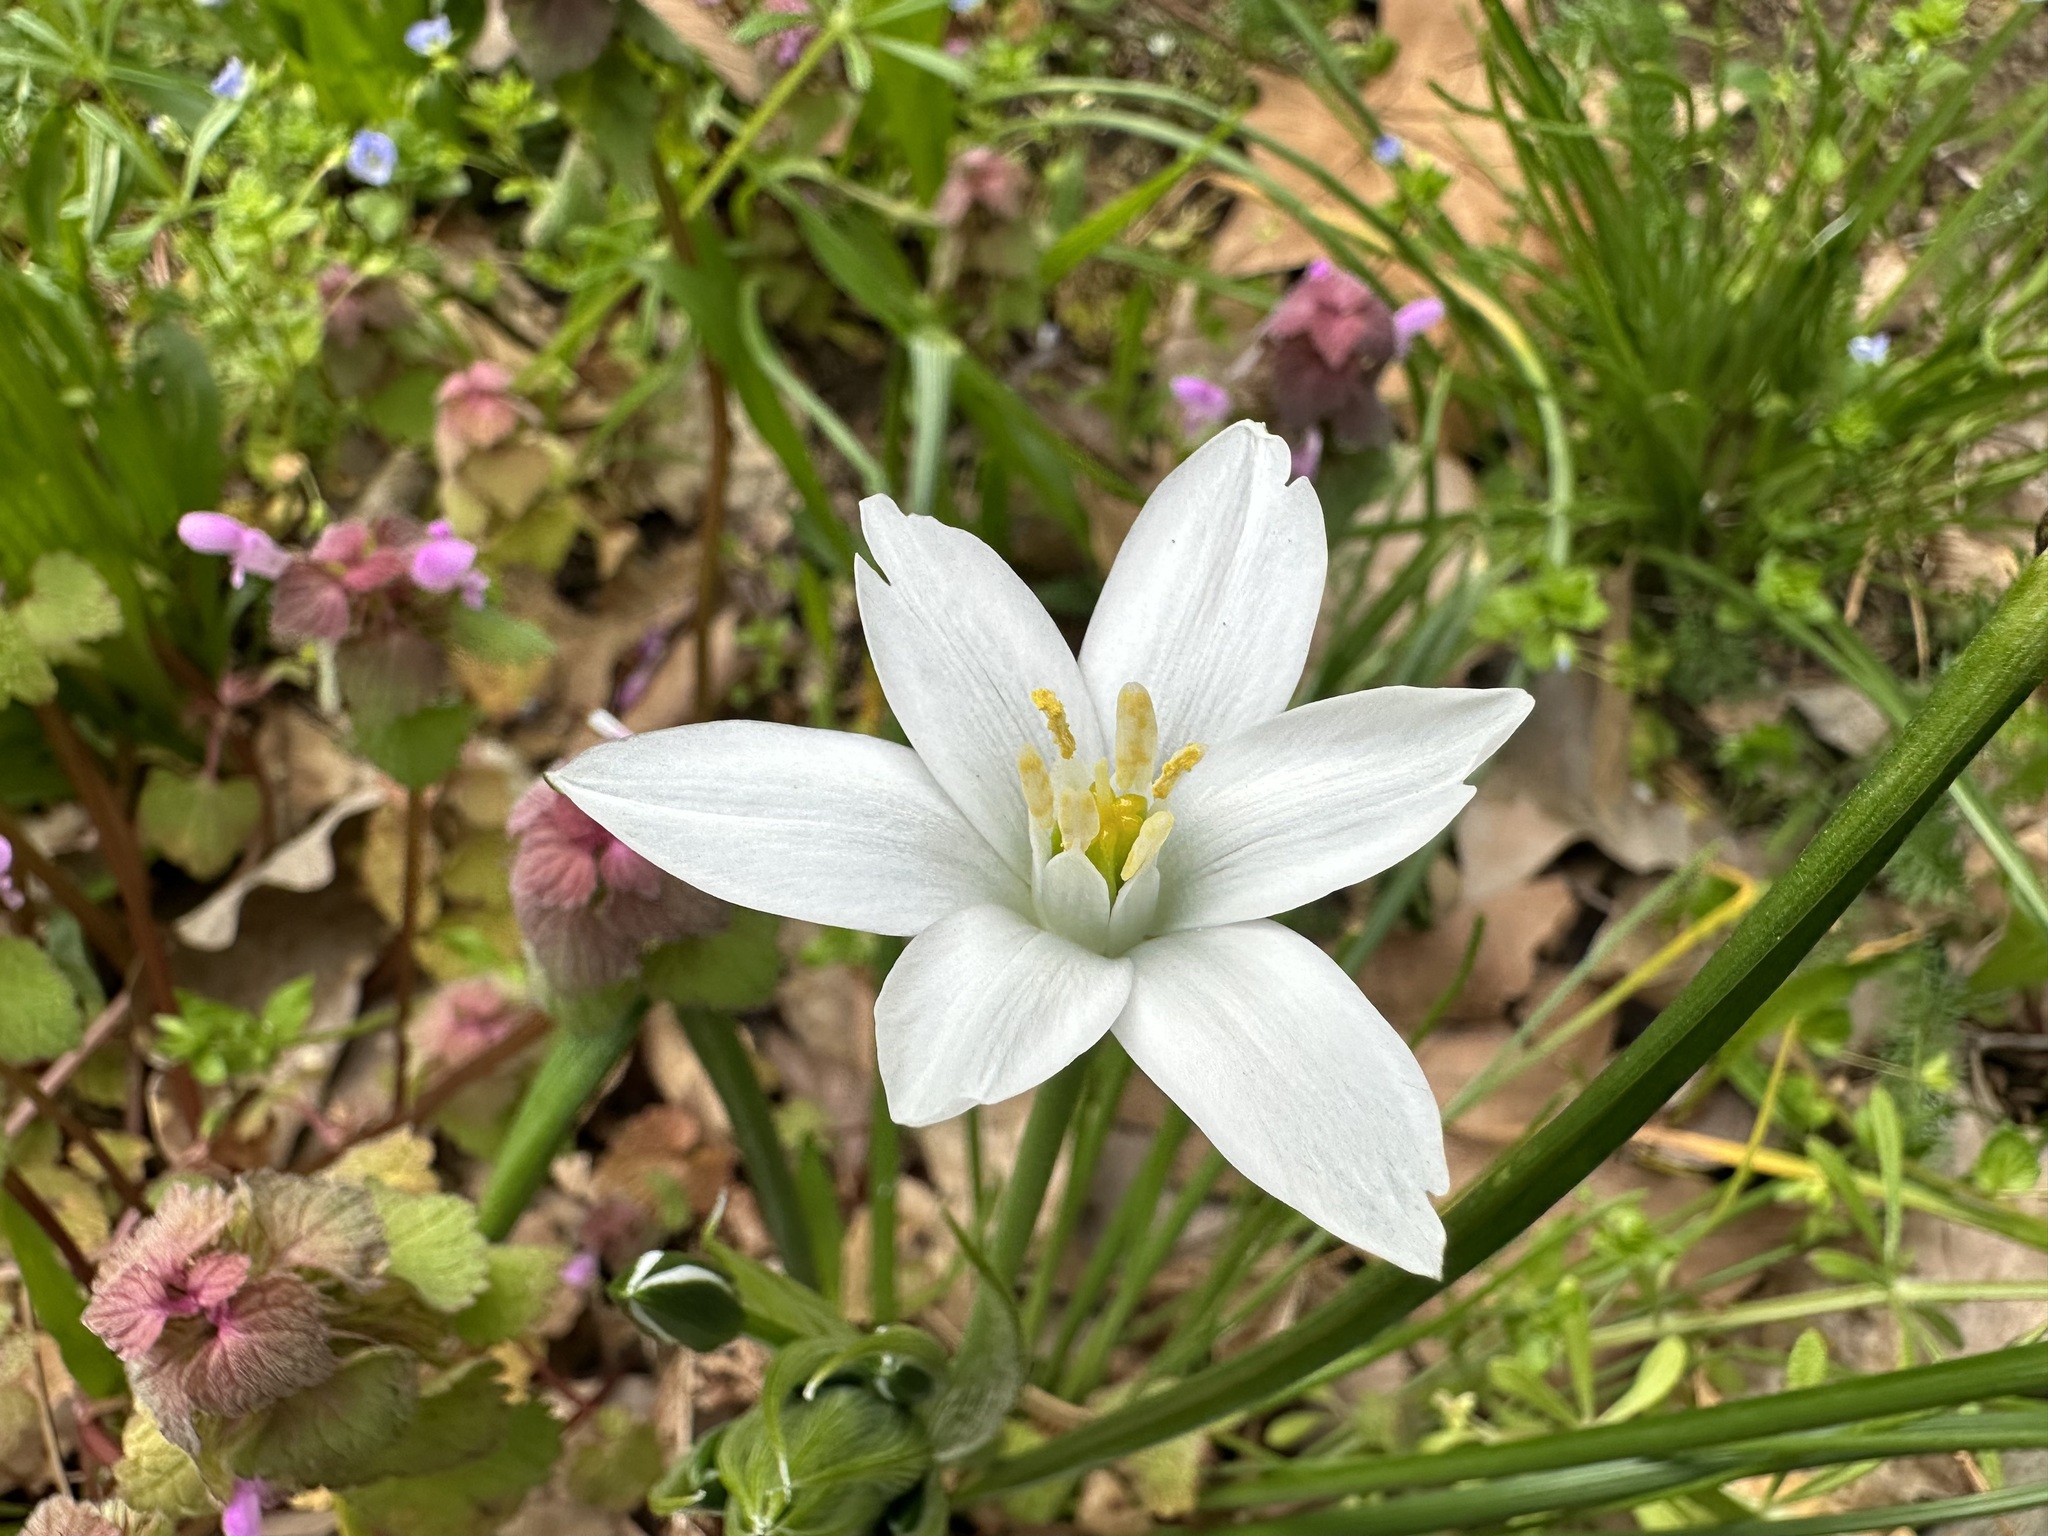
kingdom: Plantae
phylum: Tracheophyta
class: Liliopsida
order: Asparagales
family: Asparagaceae
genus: Ornithogalum
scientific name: Ornithogalum umbellatum
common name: Garden star-of-bethlehem
